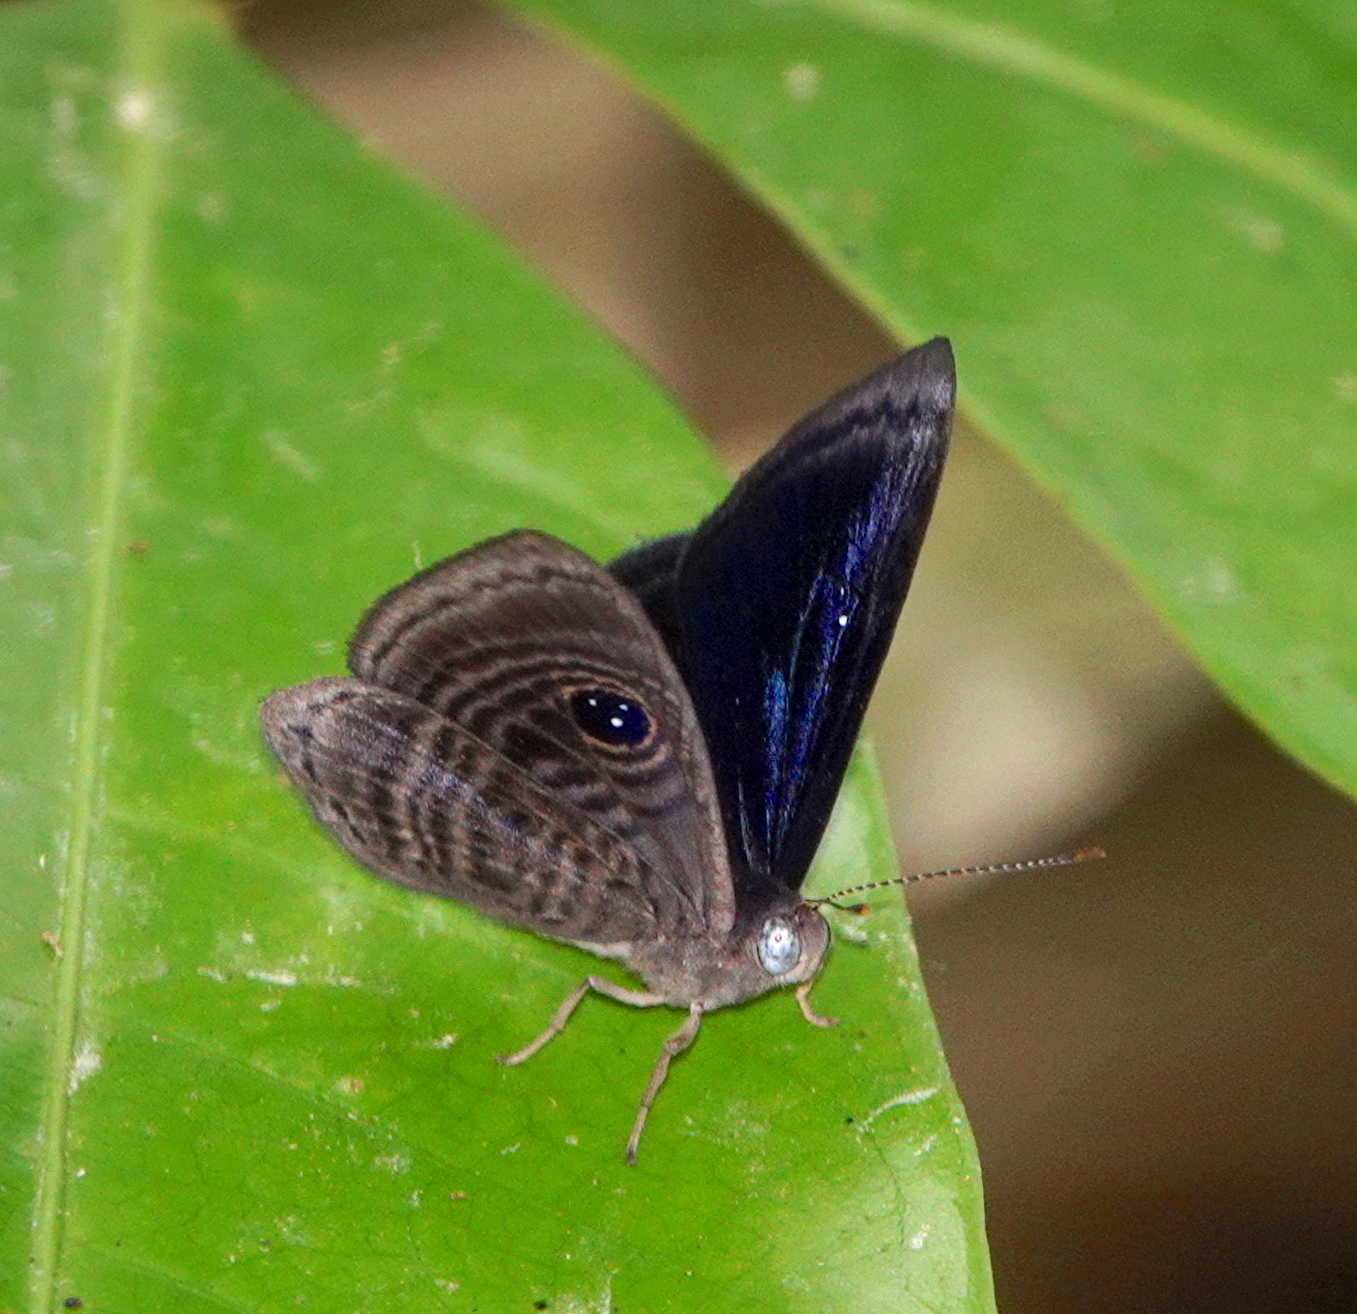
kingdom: Animalia
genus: Mesosemia
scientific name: Mesosemia melpia
